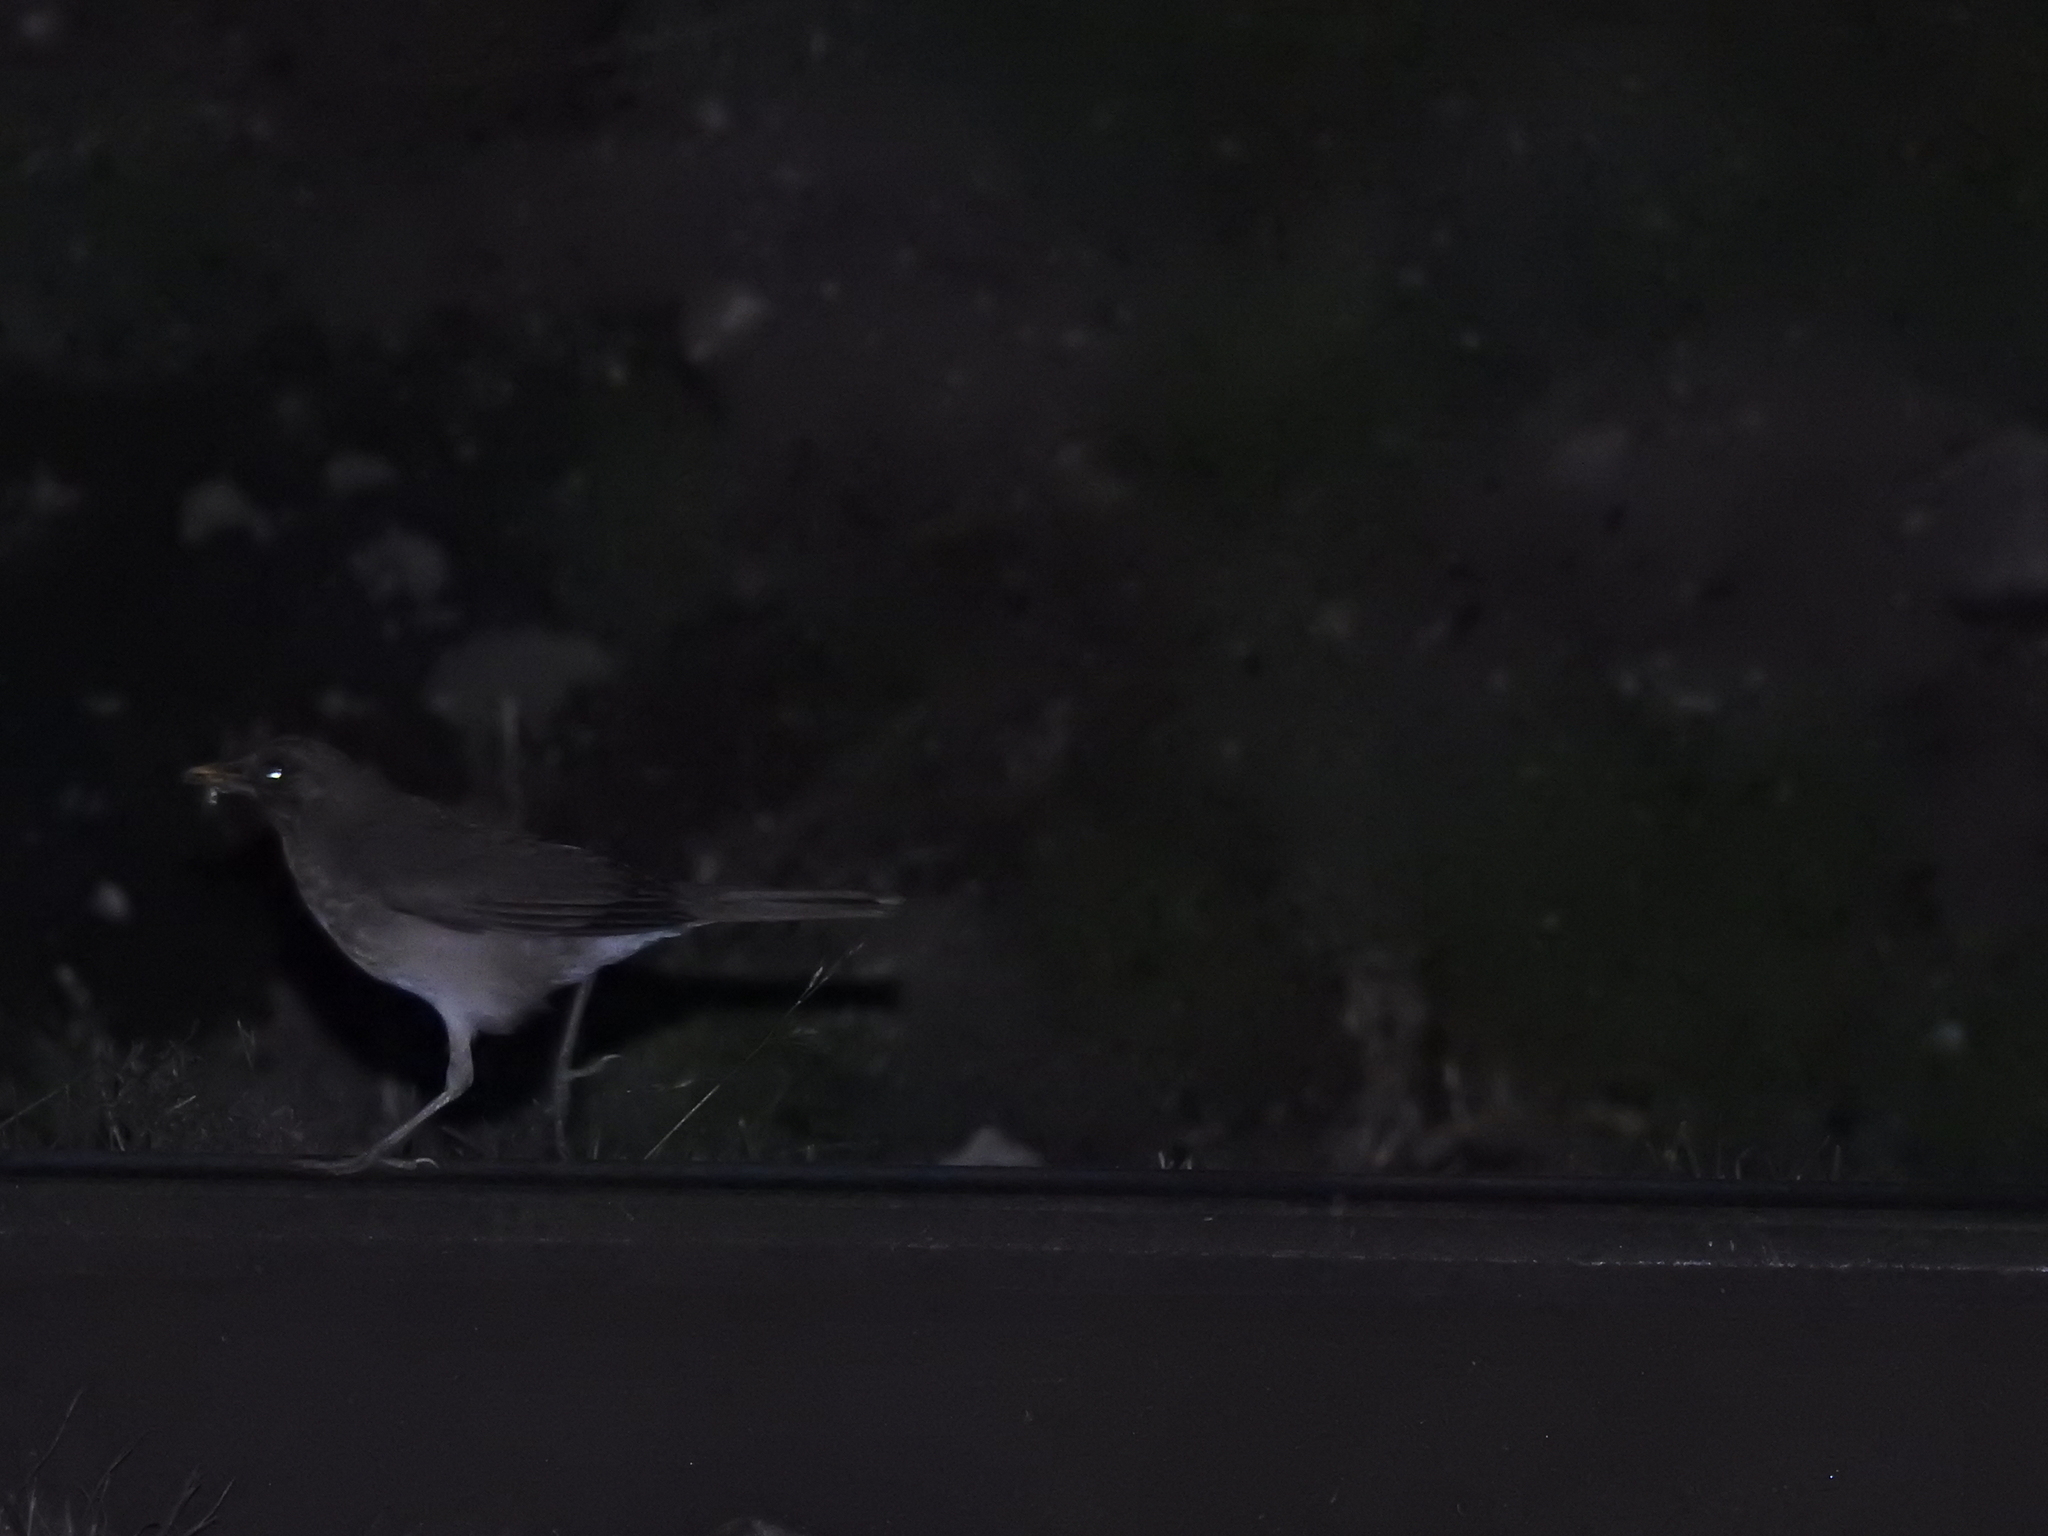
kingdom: Animalia
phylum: Chordata
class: Aves
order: Passeriformes
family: Turdidae
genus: Turdus
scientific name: Turdus amaurochalinus
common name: Creamy-bellied thrush
